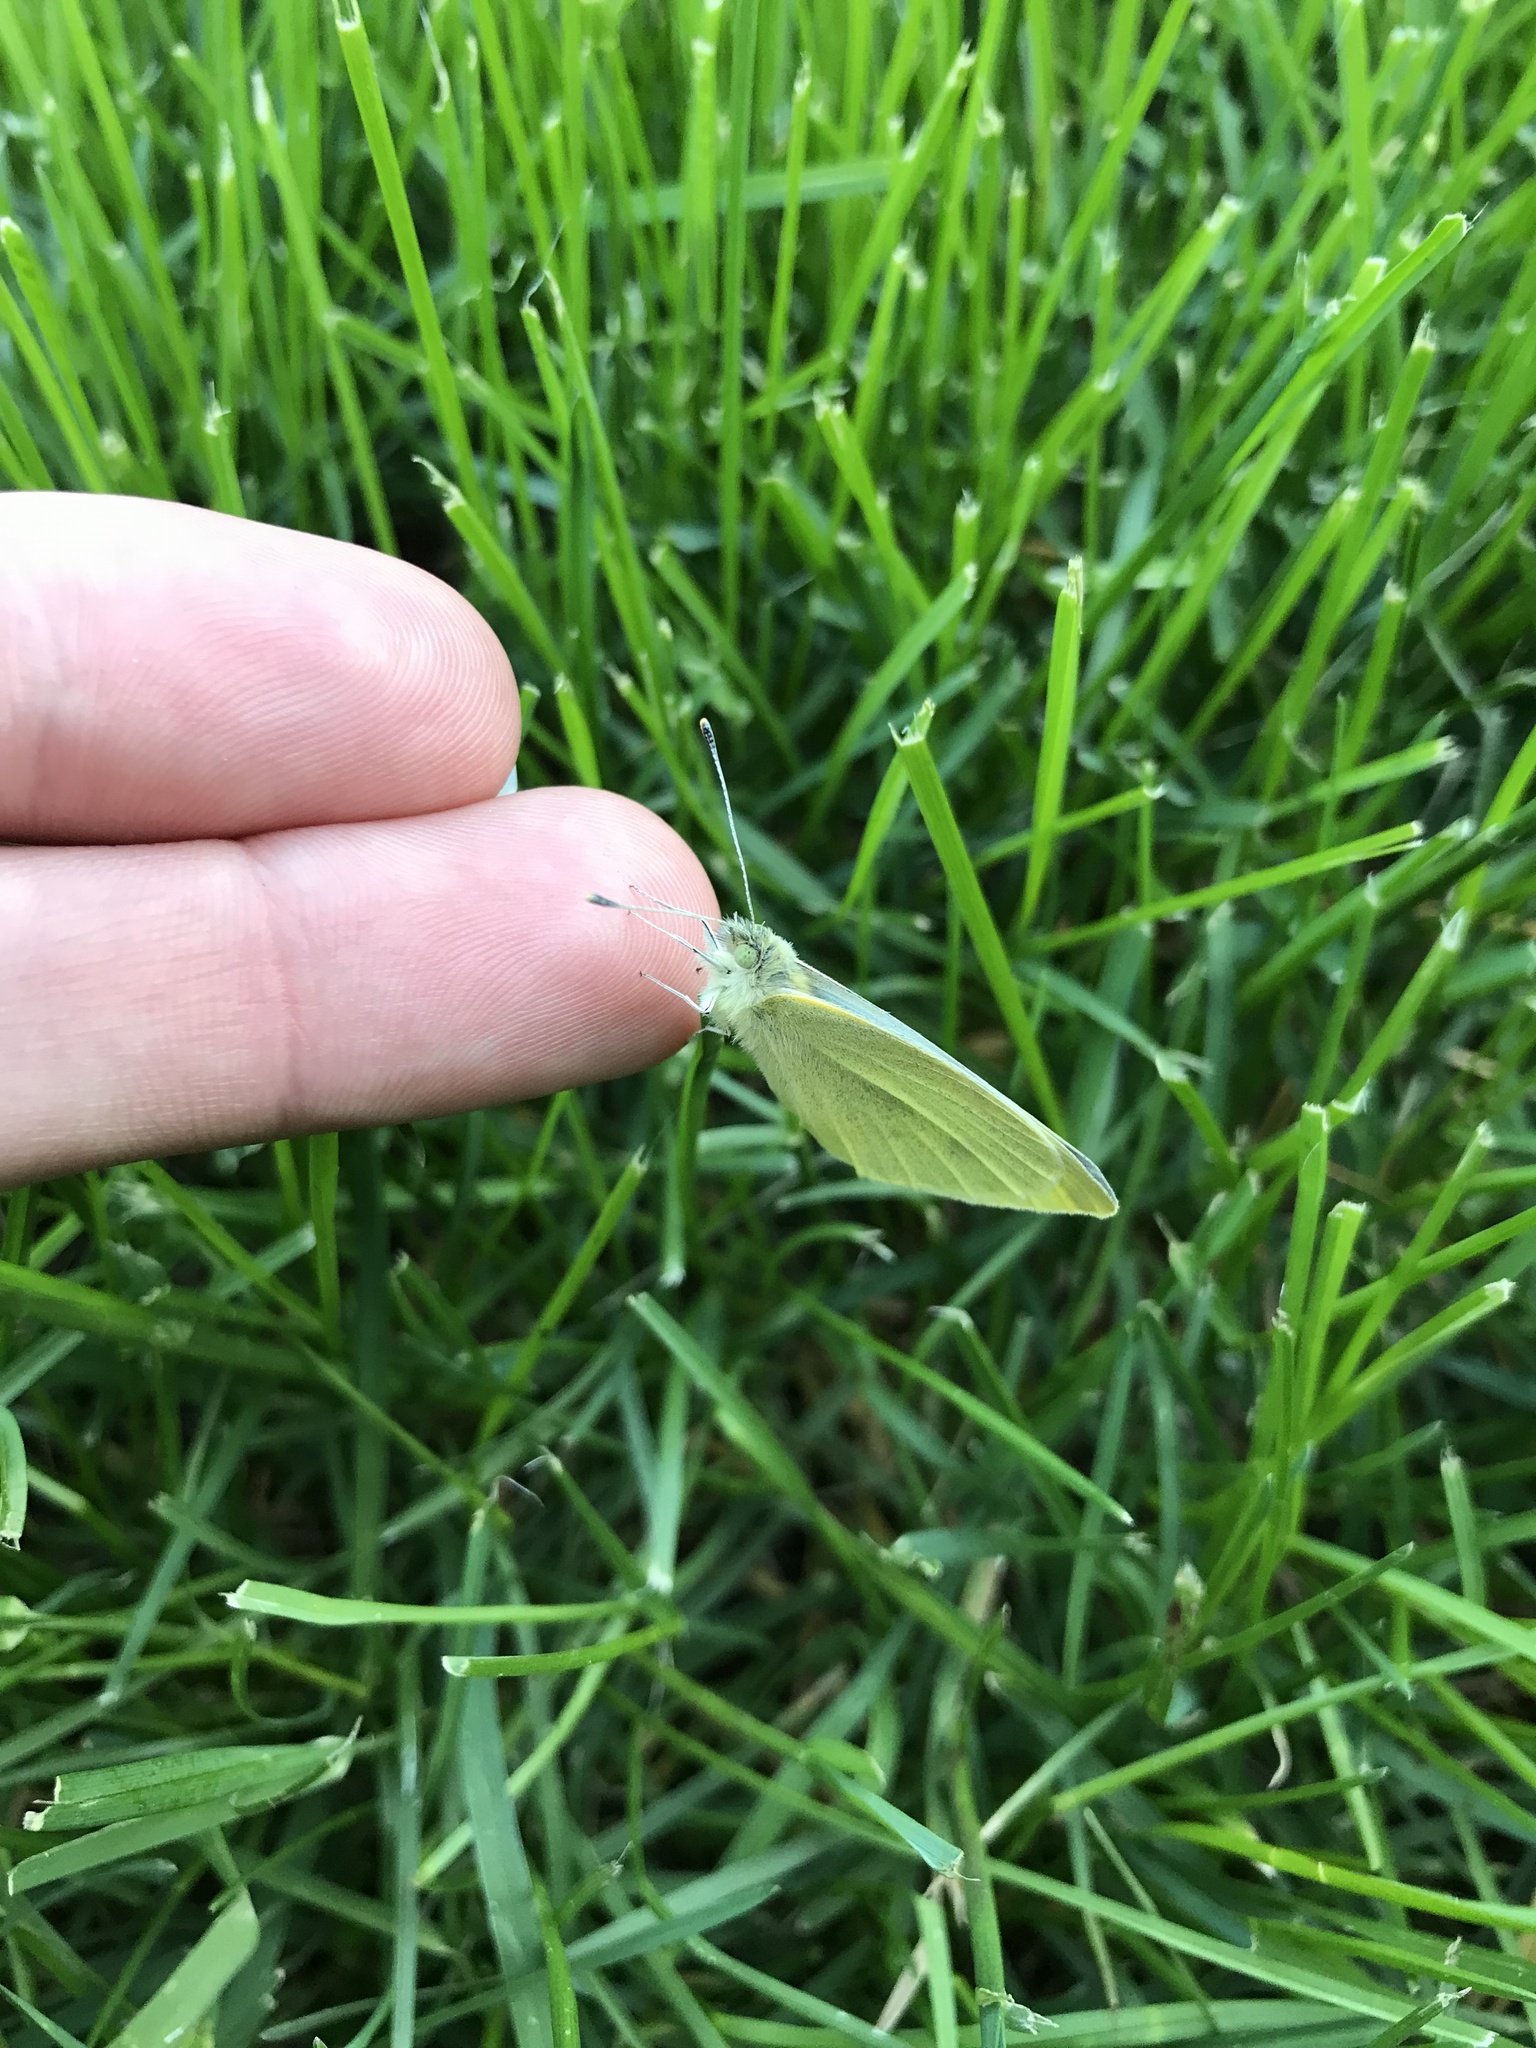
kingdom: Animalia
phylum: Arthropoda
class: Insecta
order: Lepidoptera
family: Pieridae
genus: Pieris
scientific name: Pieris rapae
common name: Small white
